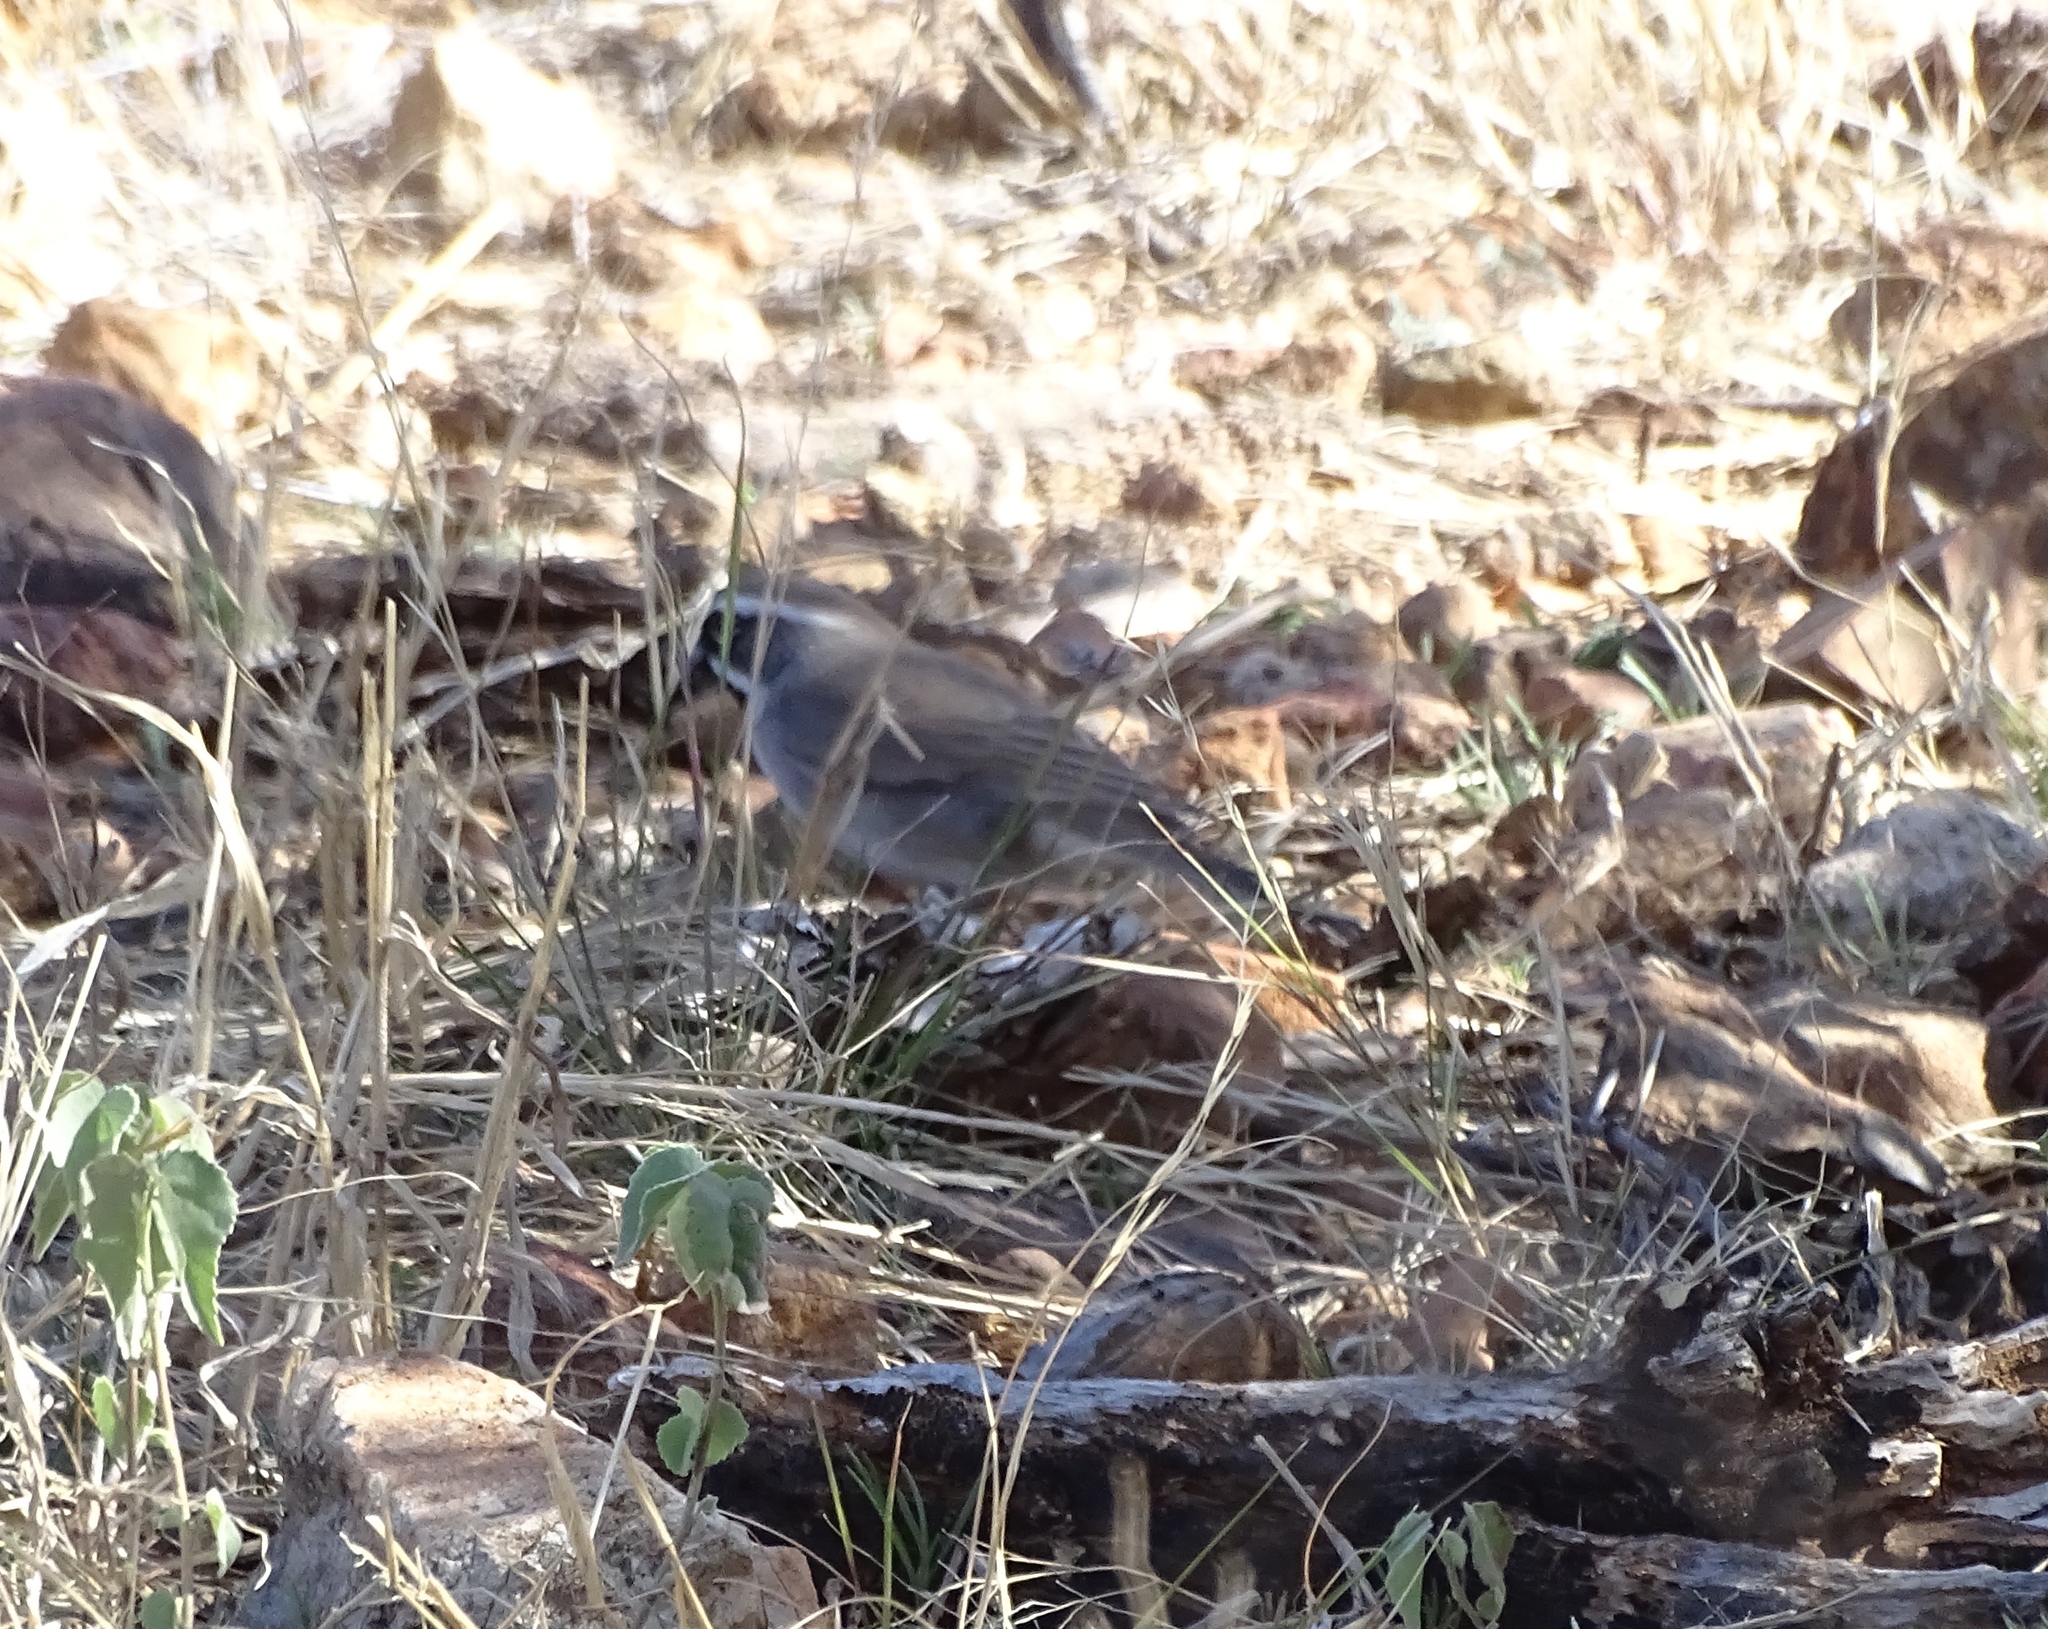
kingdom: Animalia
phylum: Chordata
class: Aves
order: Passeriformes
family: Passerellidae
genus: Amphispiza
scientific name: Amphispiza bilineata
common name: Black-throated sparrow
